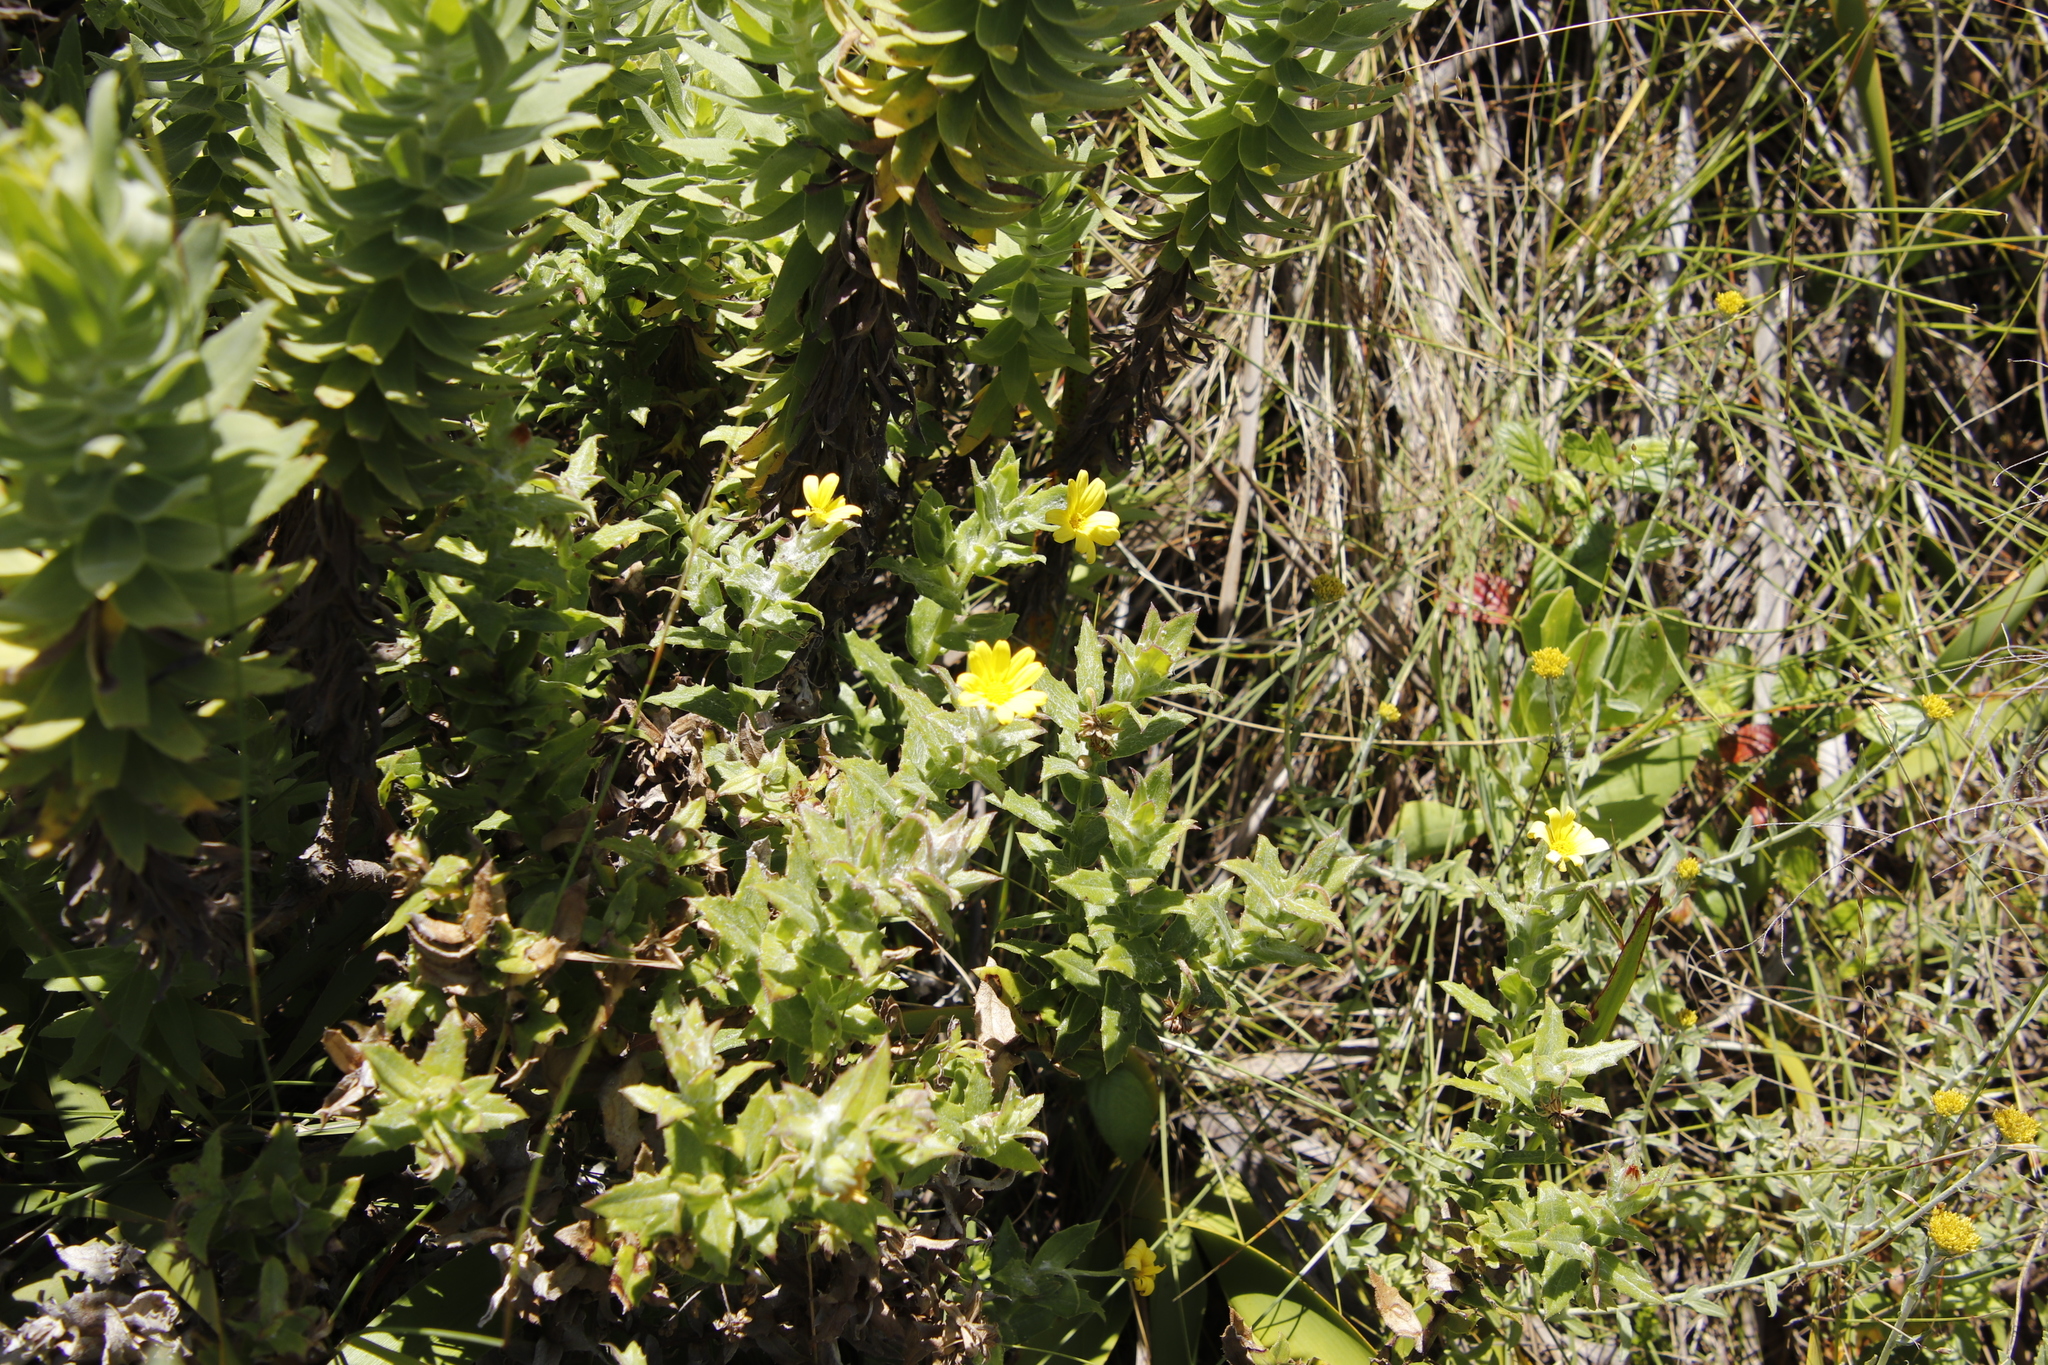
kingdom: Plantae
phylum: Tracheophyta
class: Magnoliopsida
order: Asterales
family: Asteraceae
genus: Osteospermum
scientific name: Osteospermum ilicifolium
